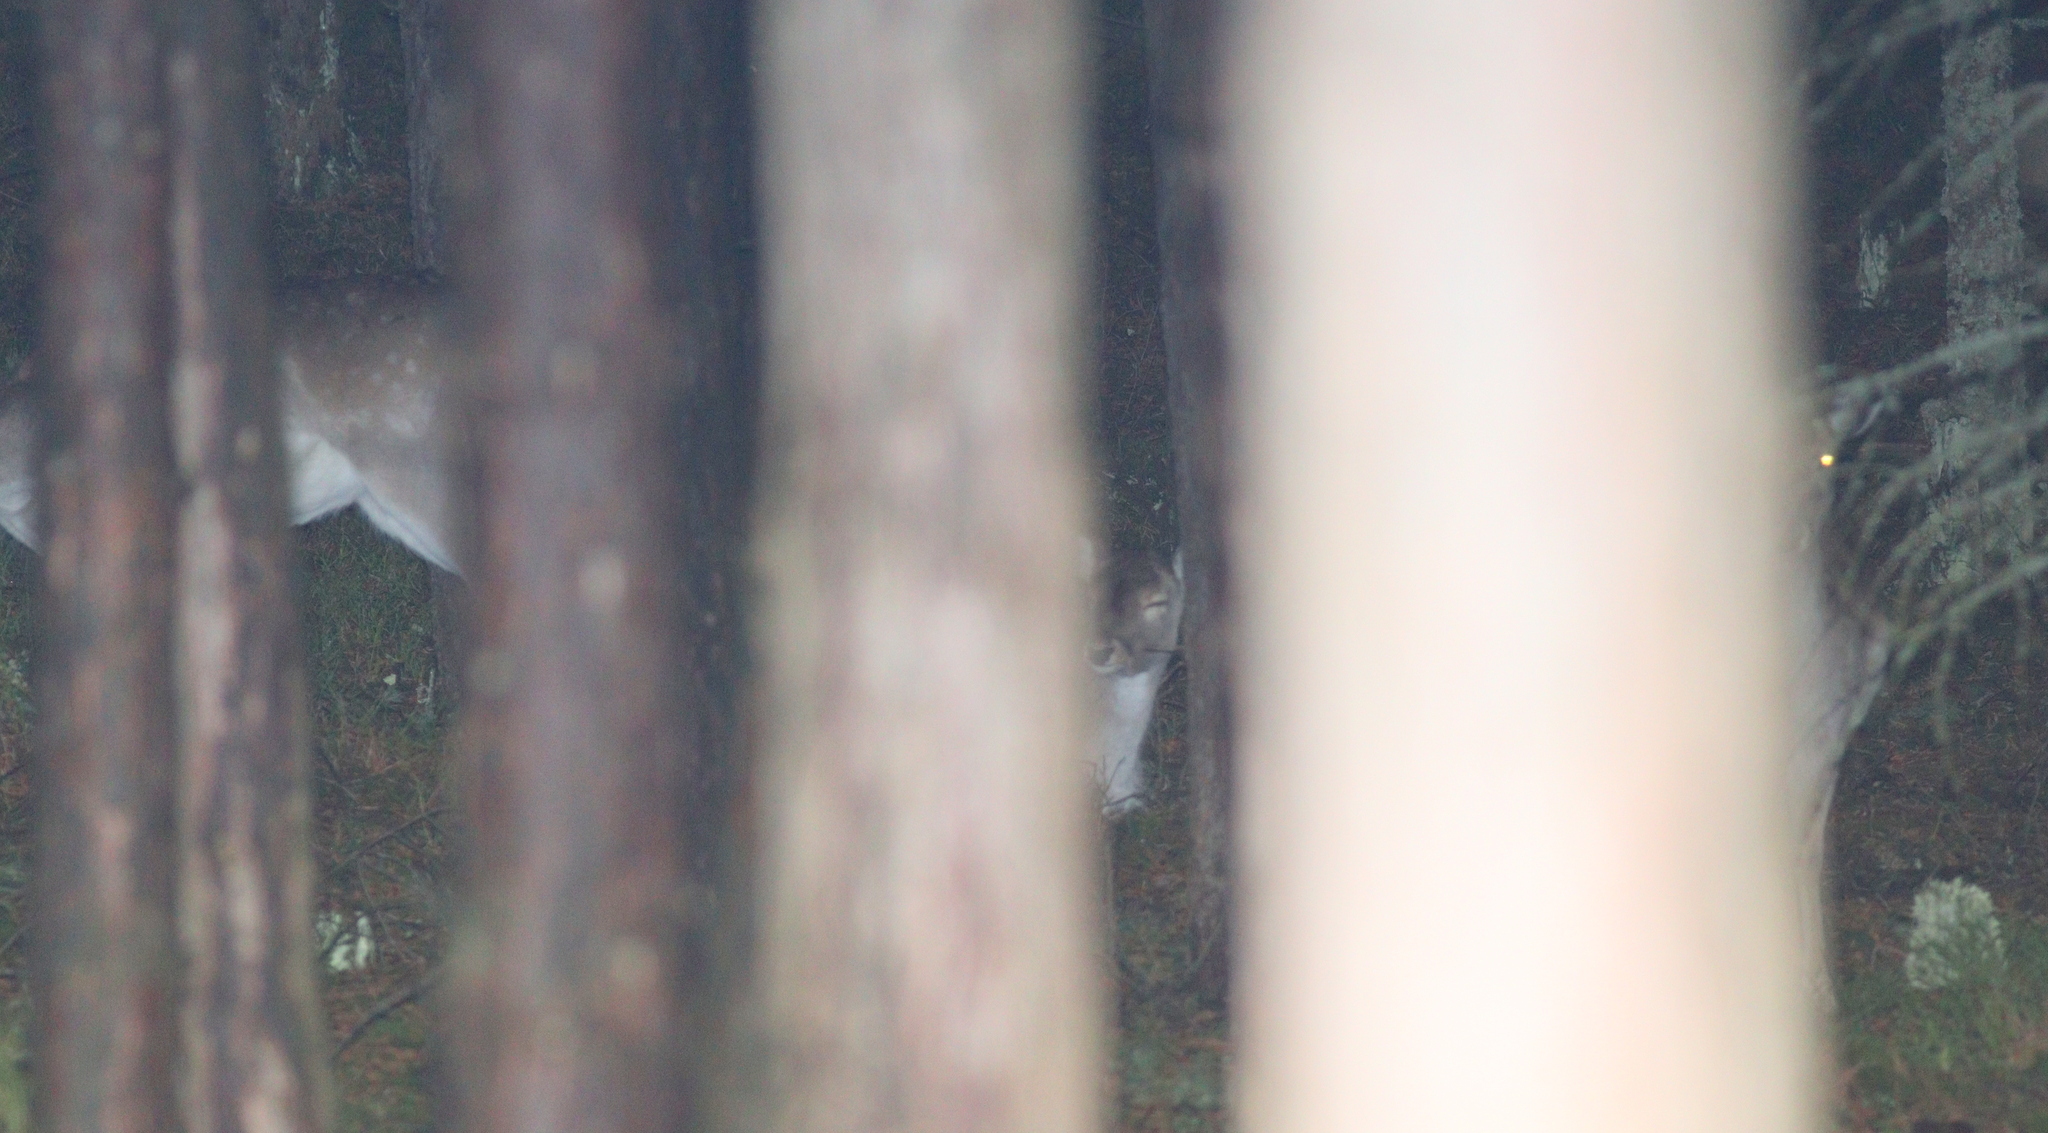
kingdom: Animalia
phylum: Chordata
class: Mammalia
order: Artiodactyla
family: Cervidae
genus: Dama
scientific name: Dama dama
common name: Fallow deer
